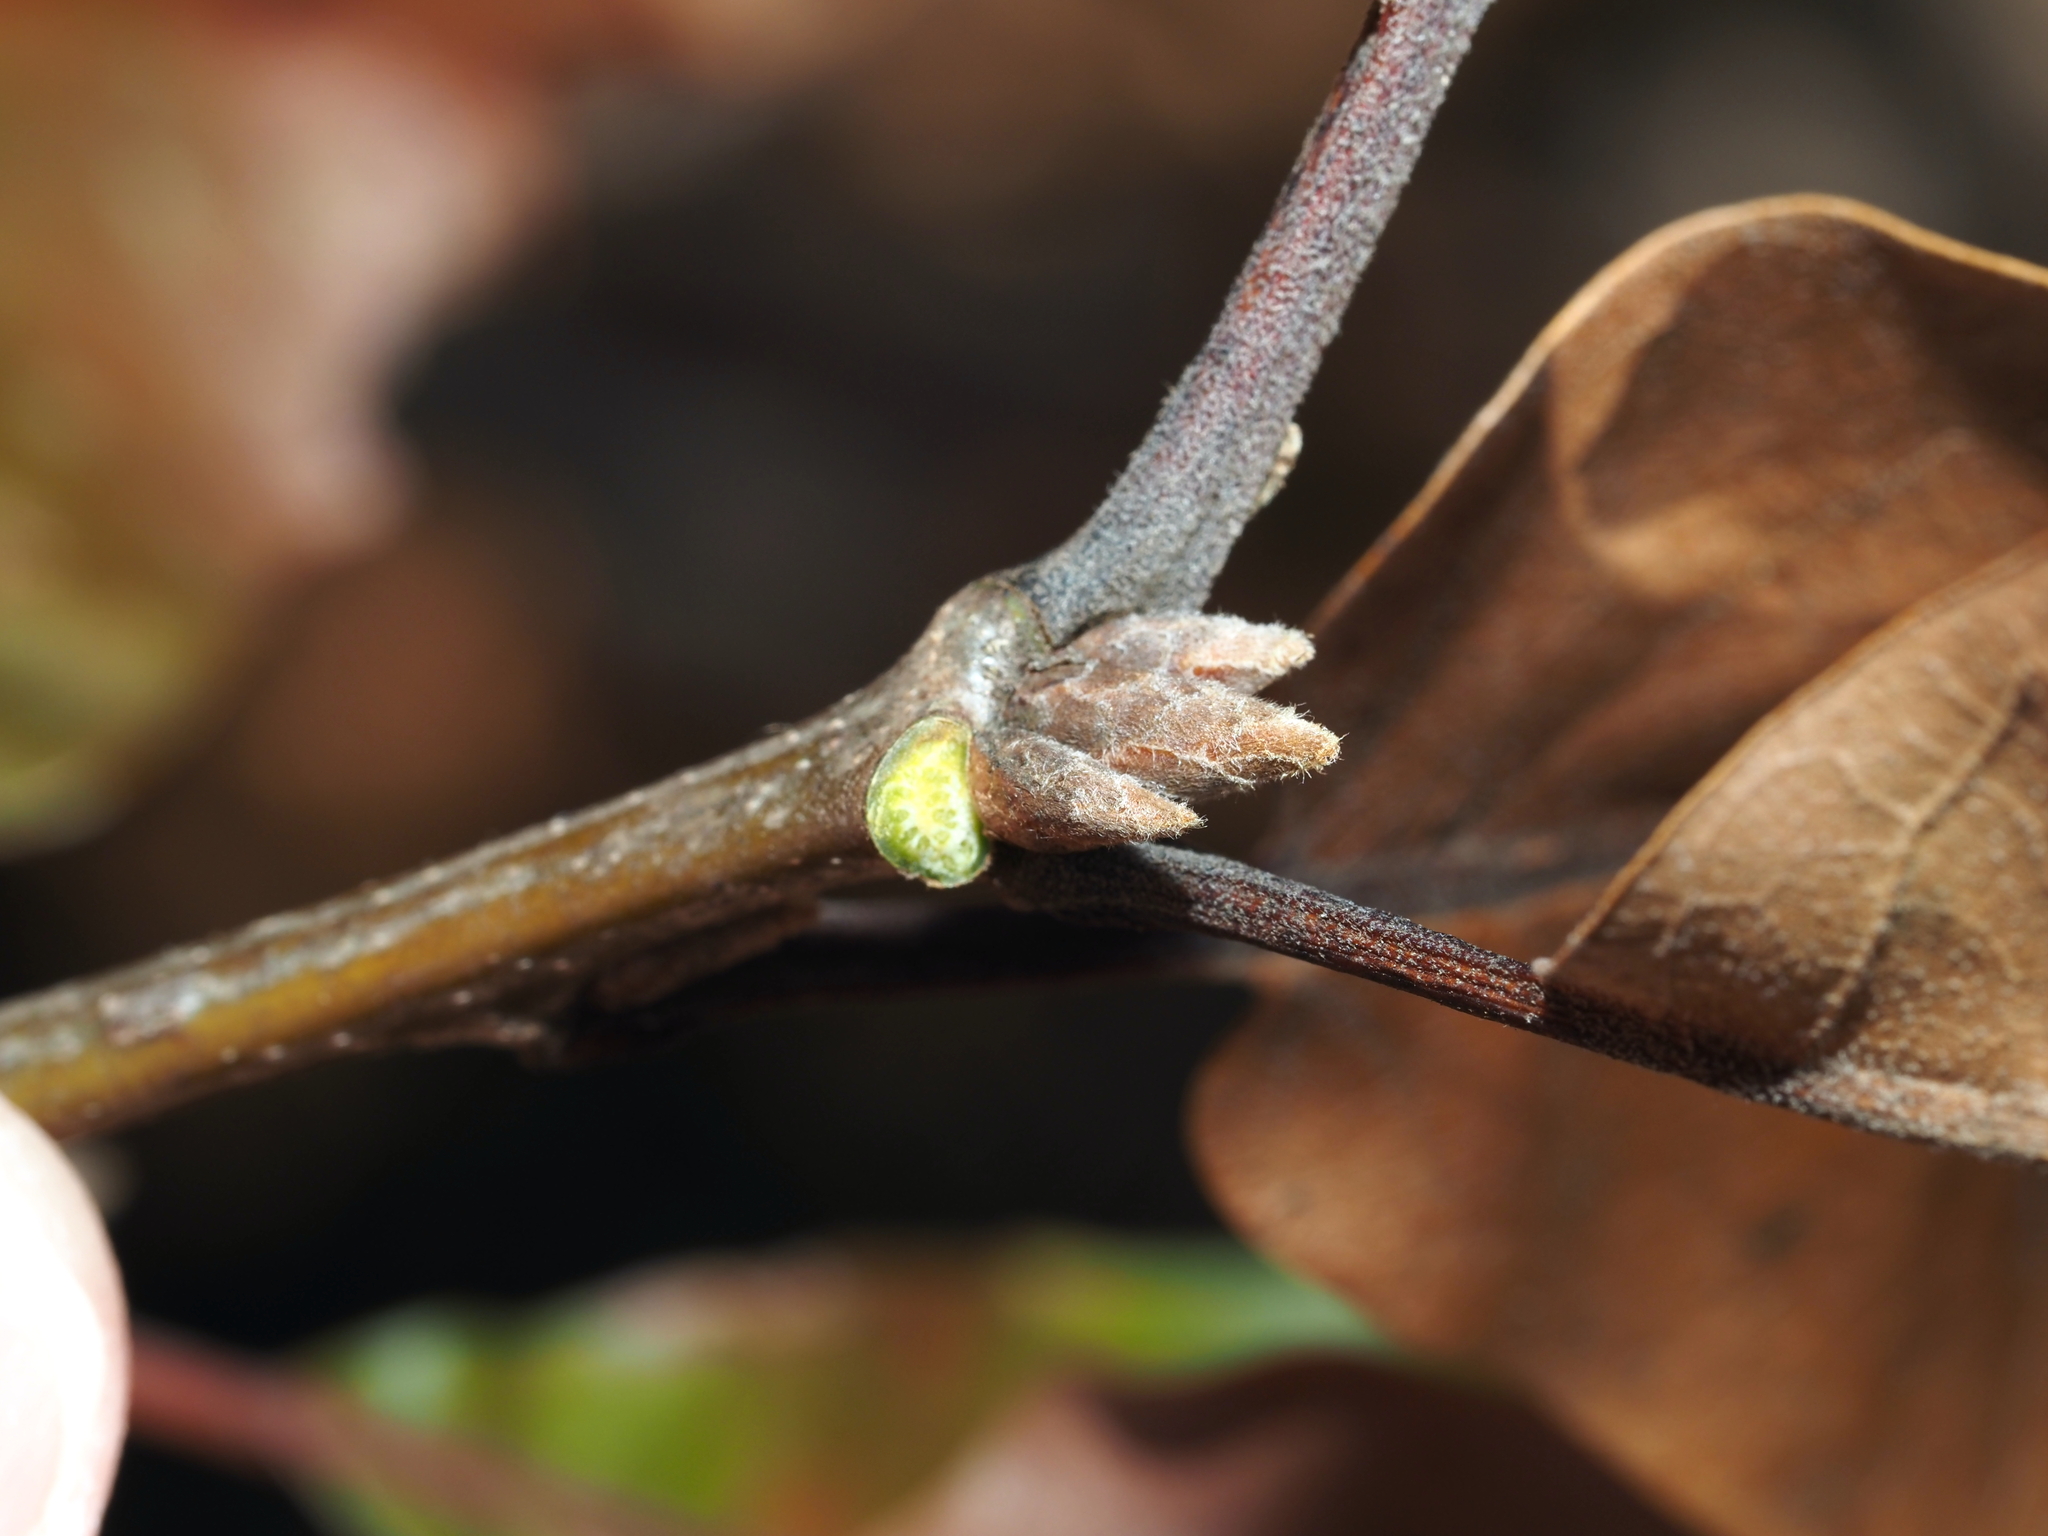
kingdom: Plantae
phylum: Tracheophyta
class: Magnoliopsida
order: Fagales
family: Fagaceae
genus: Quercus
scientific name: Quercus marilandica
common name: Blackjack oak
